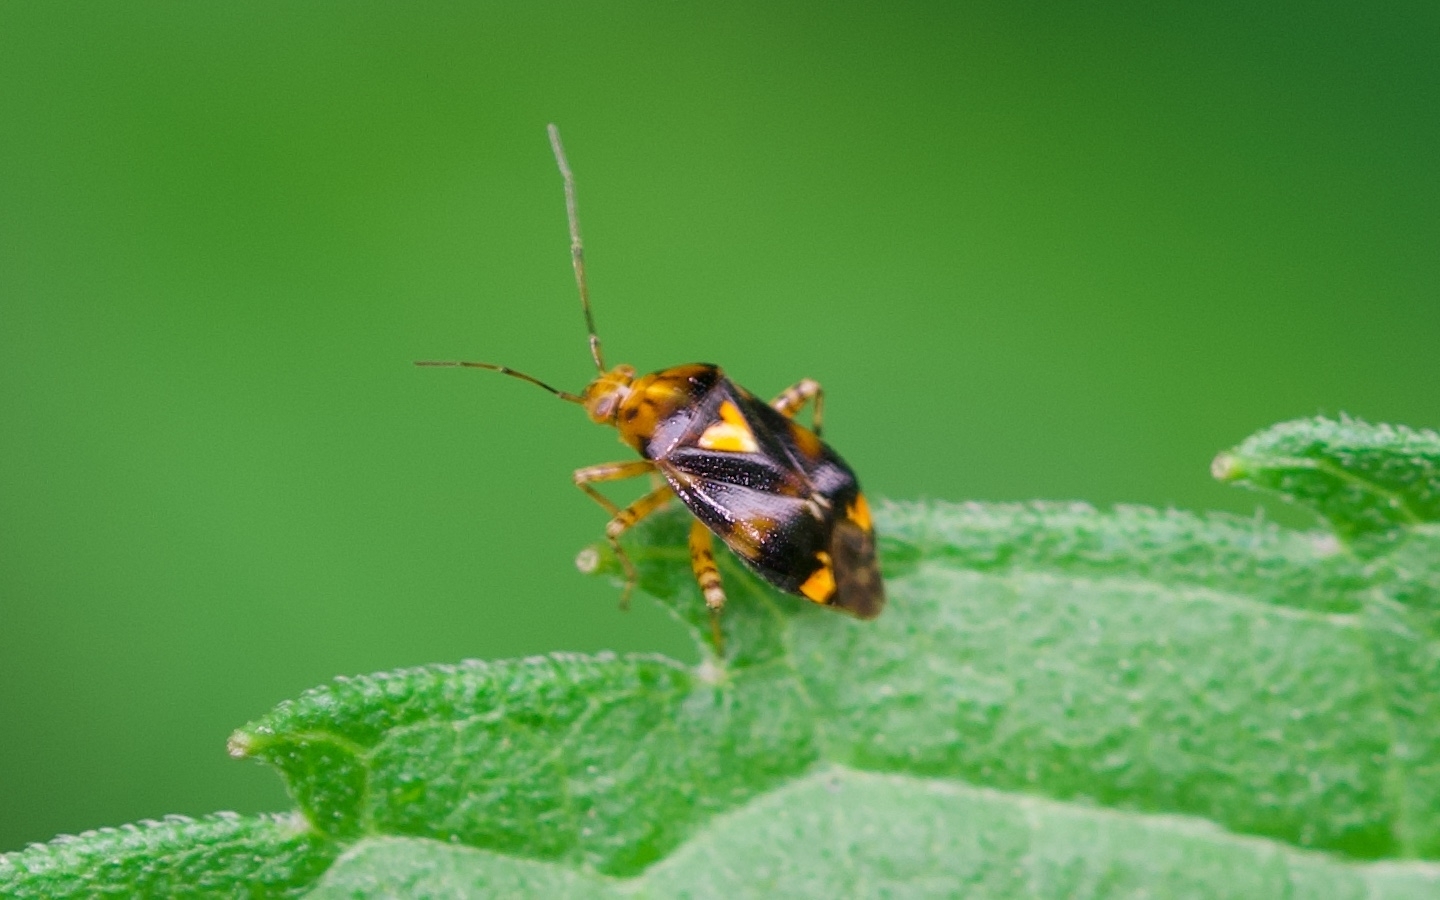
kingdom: Animalia
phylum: Arthropoda
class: Insecta
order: Hemiptera
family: Miridae
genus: Liocoris
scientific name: Liocoris tripustulatus
